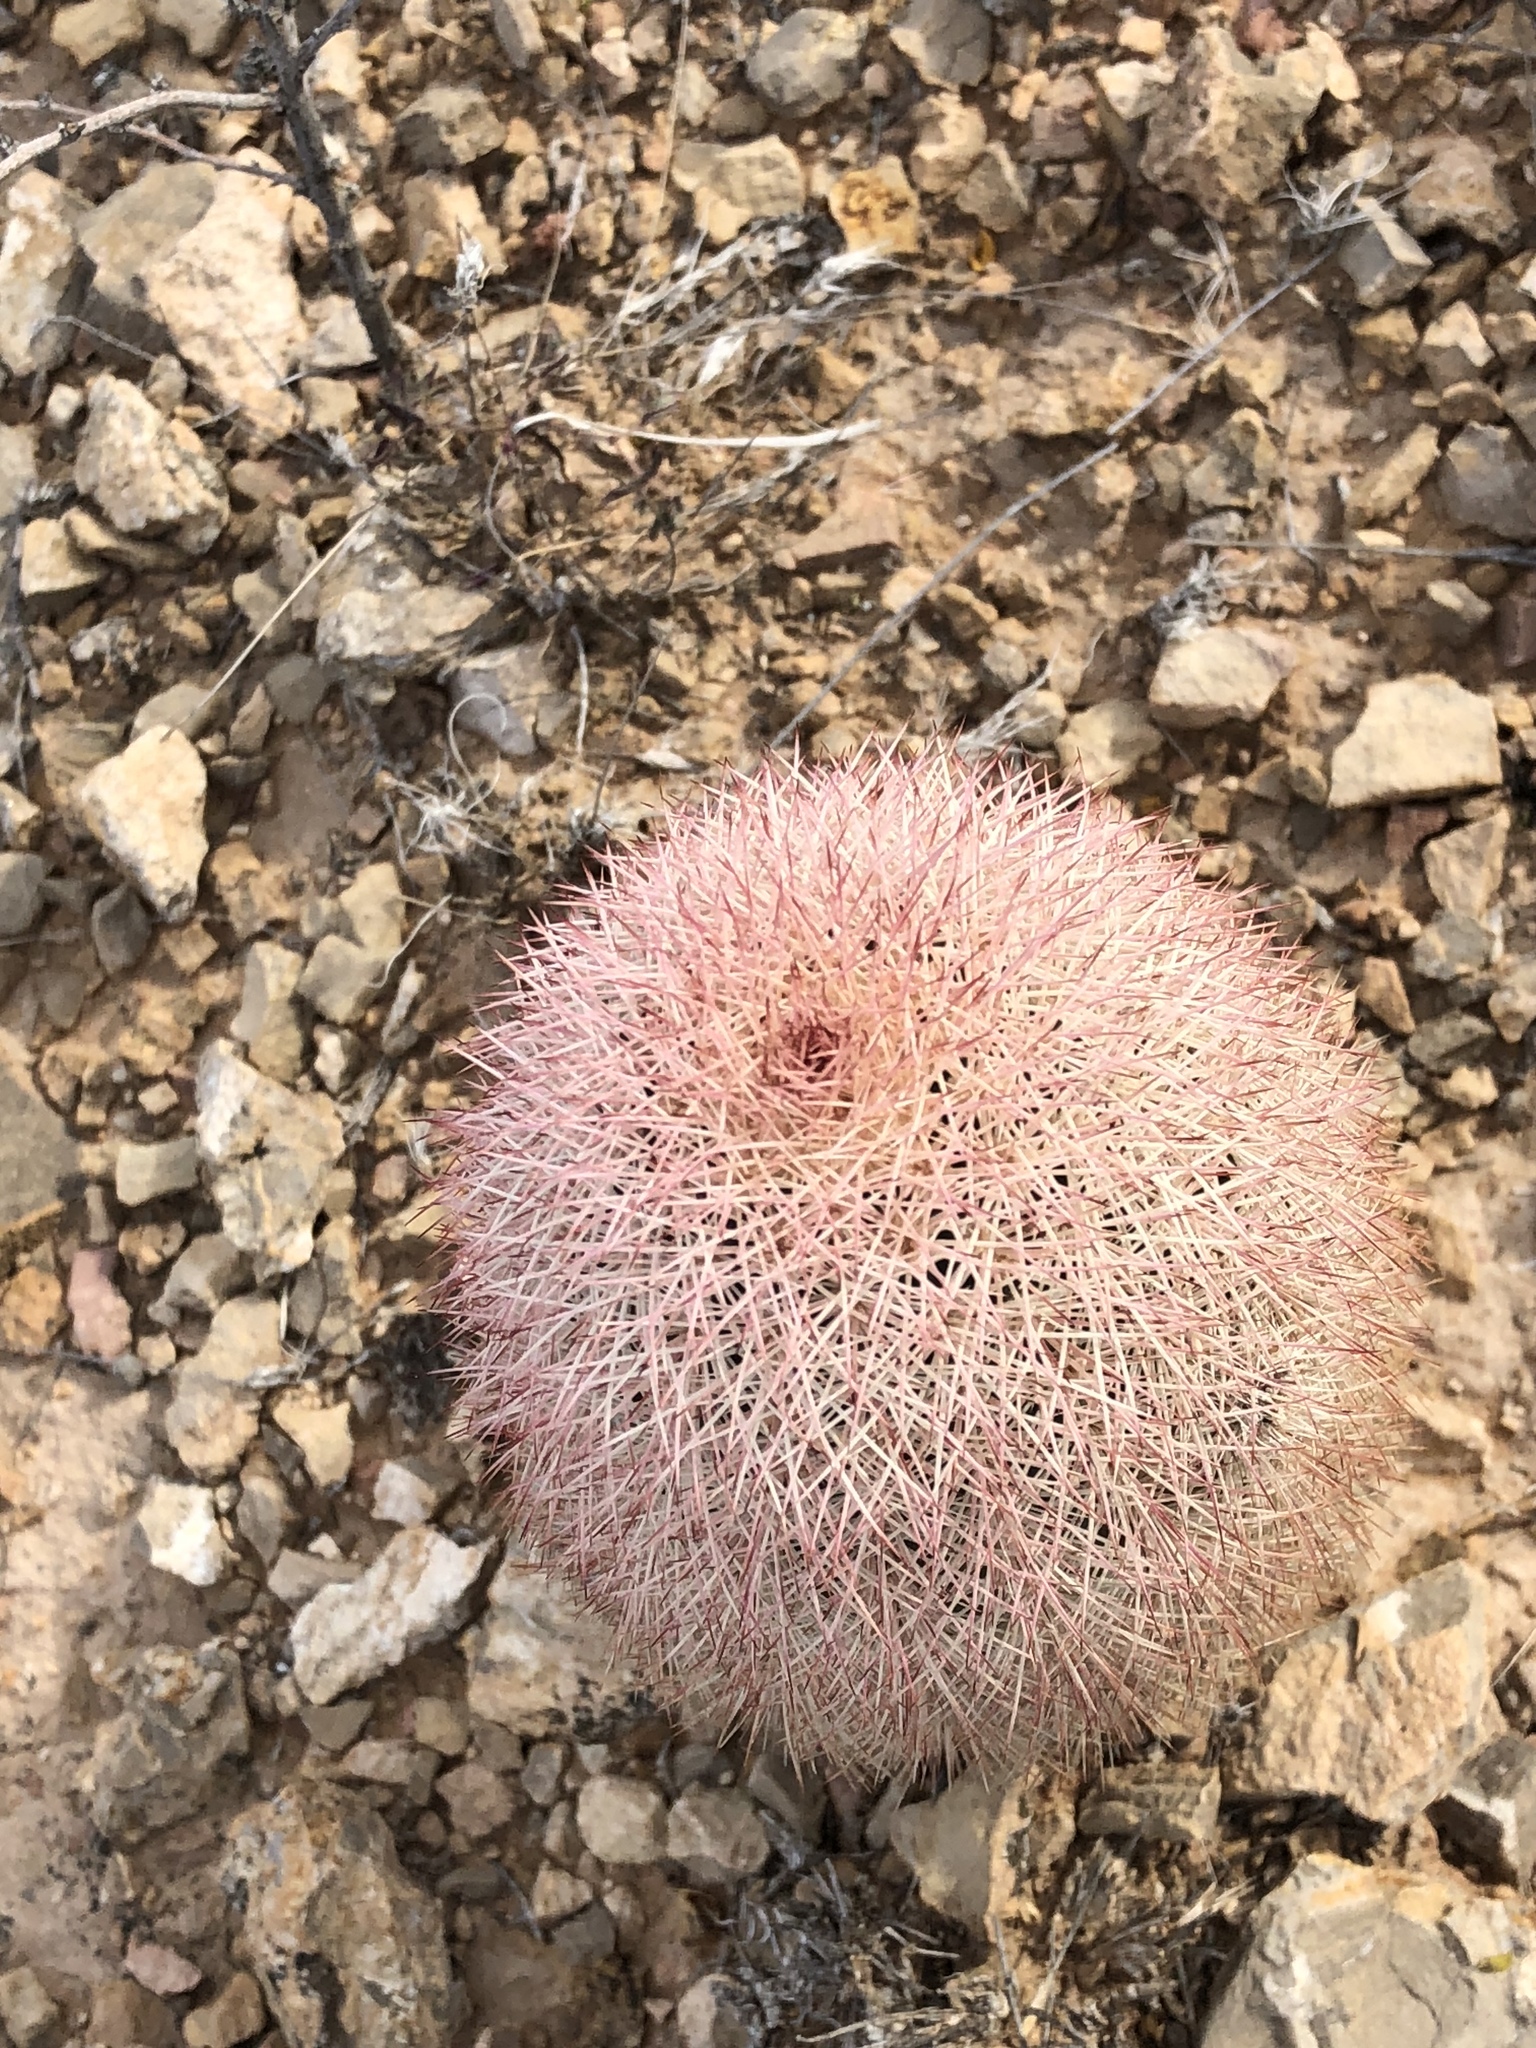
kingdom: Plantae
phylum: Tracheophyta
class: Magnoliopsida
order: Caryophyllales
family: Cactaceae
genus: Echinocereus
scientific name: Echinocereus dasyacanthus
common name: Spiny hedgehog cactus
